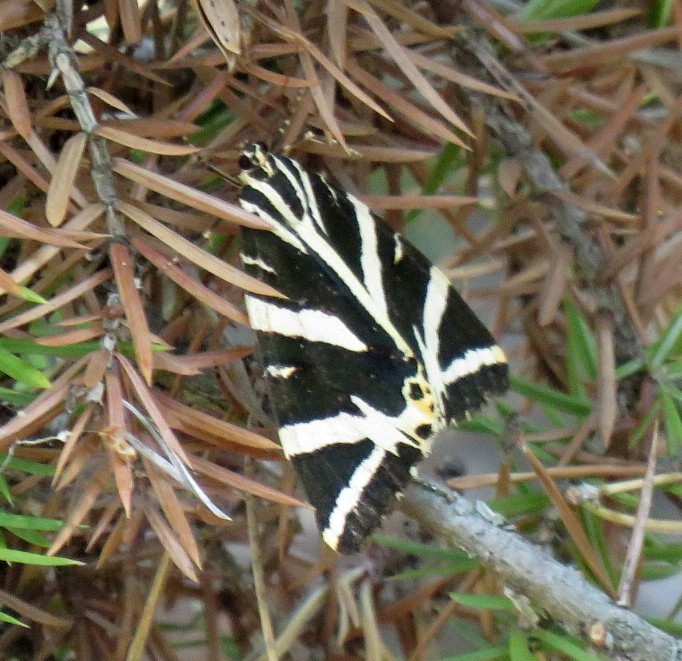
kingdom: Animalia
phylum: Arthropoda
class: Insecta
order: Lepidoptera
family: Erebidae
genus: Euplagia
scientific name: Euplagia quadripunctaria
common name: Jersey tiger
